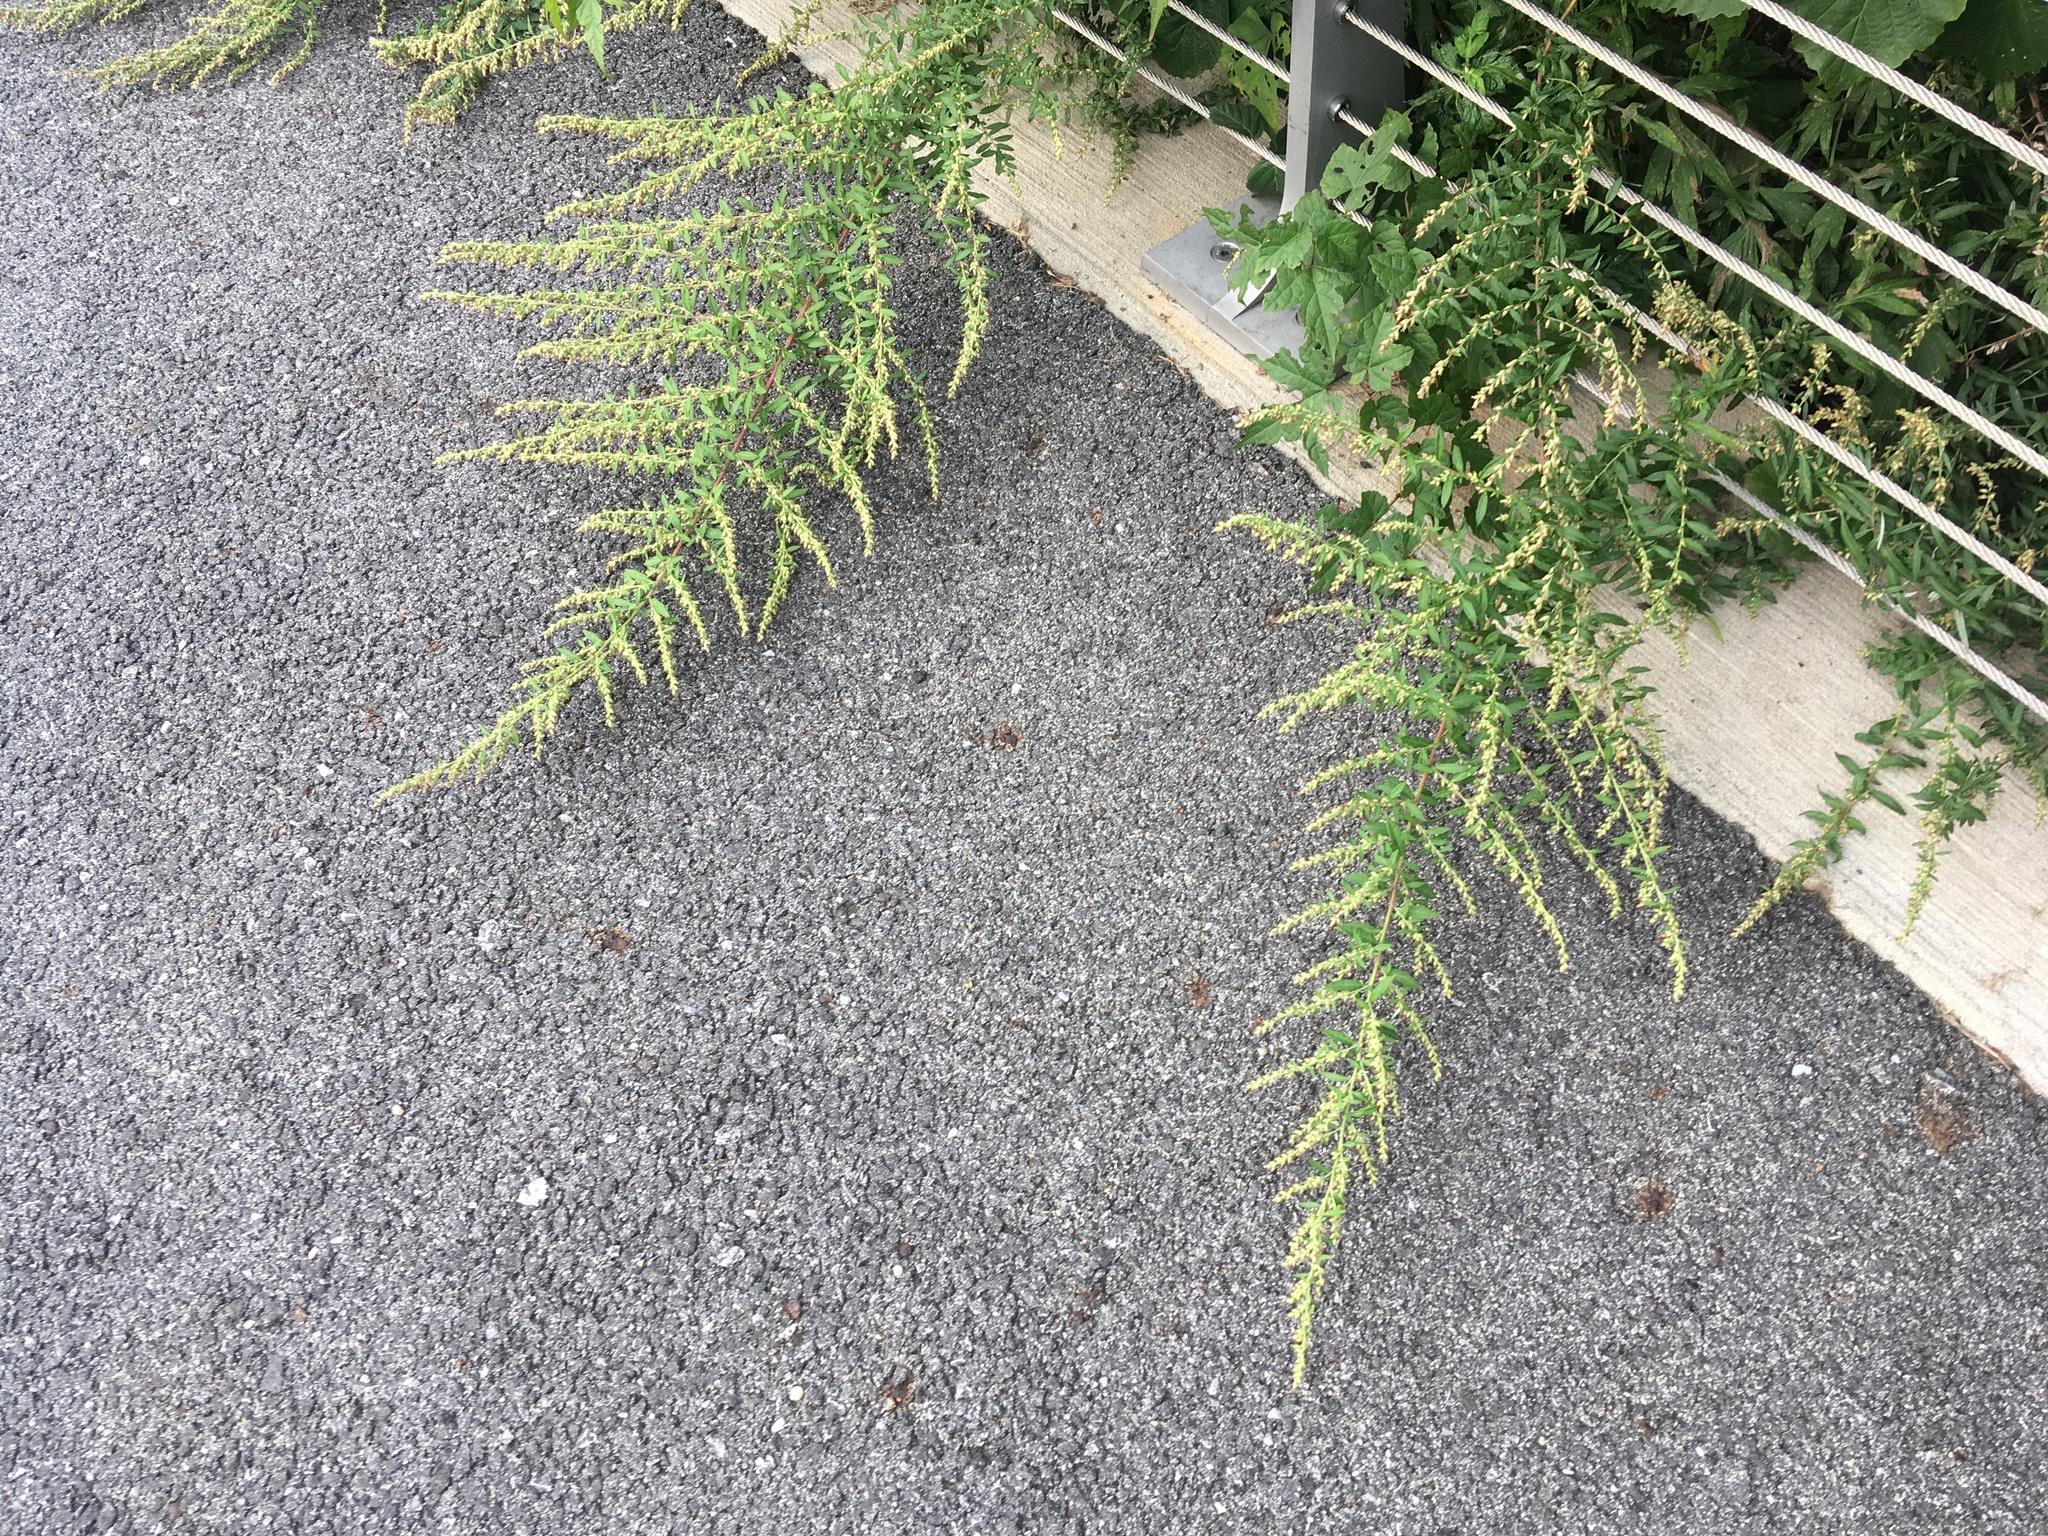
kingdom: Plantae
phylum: Tracheophyta
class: Magnoliopsida
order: Asterales
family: Asteraceae
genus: Artemisia
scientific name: Artemisia vulgaris
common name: Mugwort
